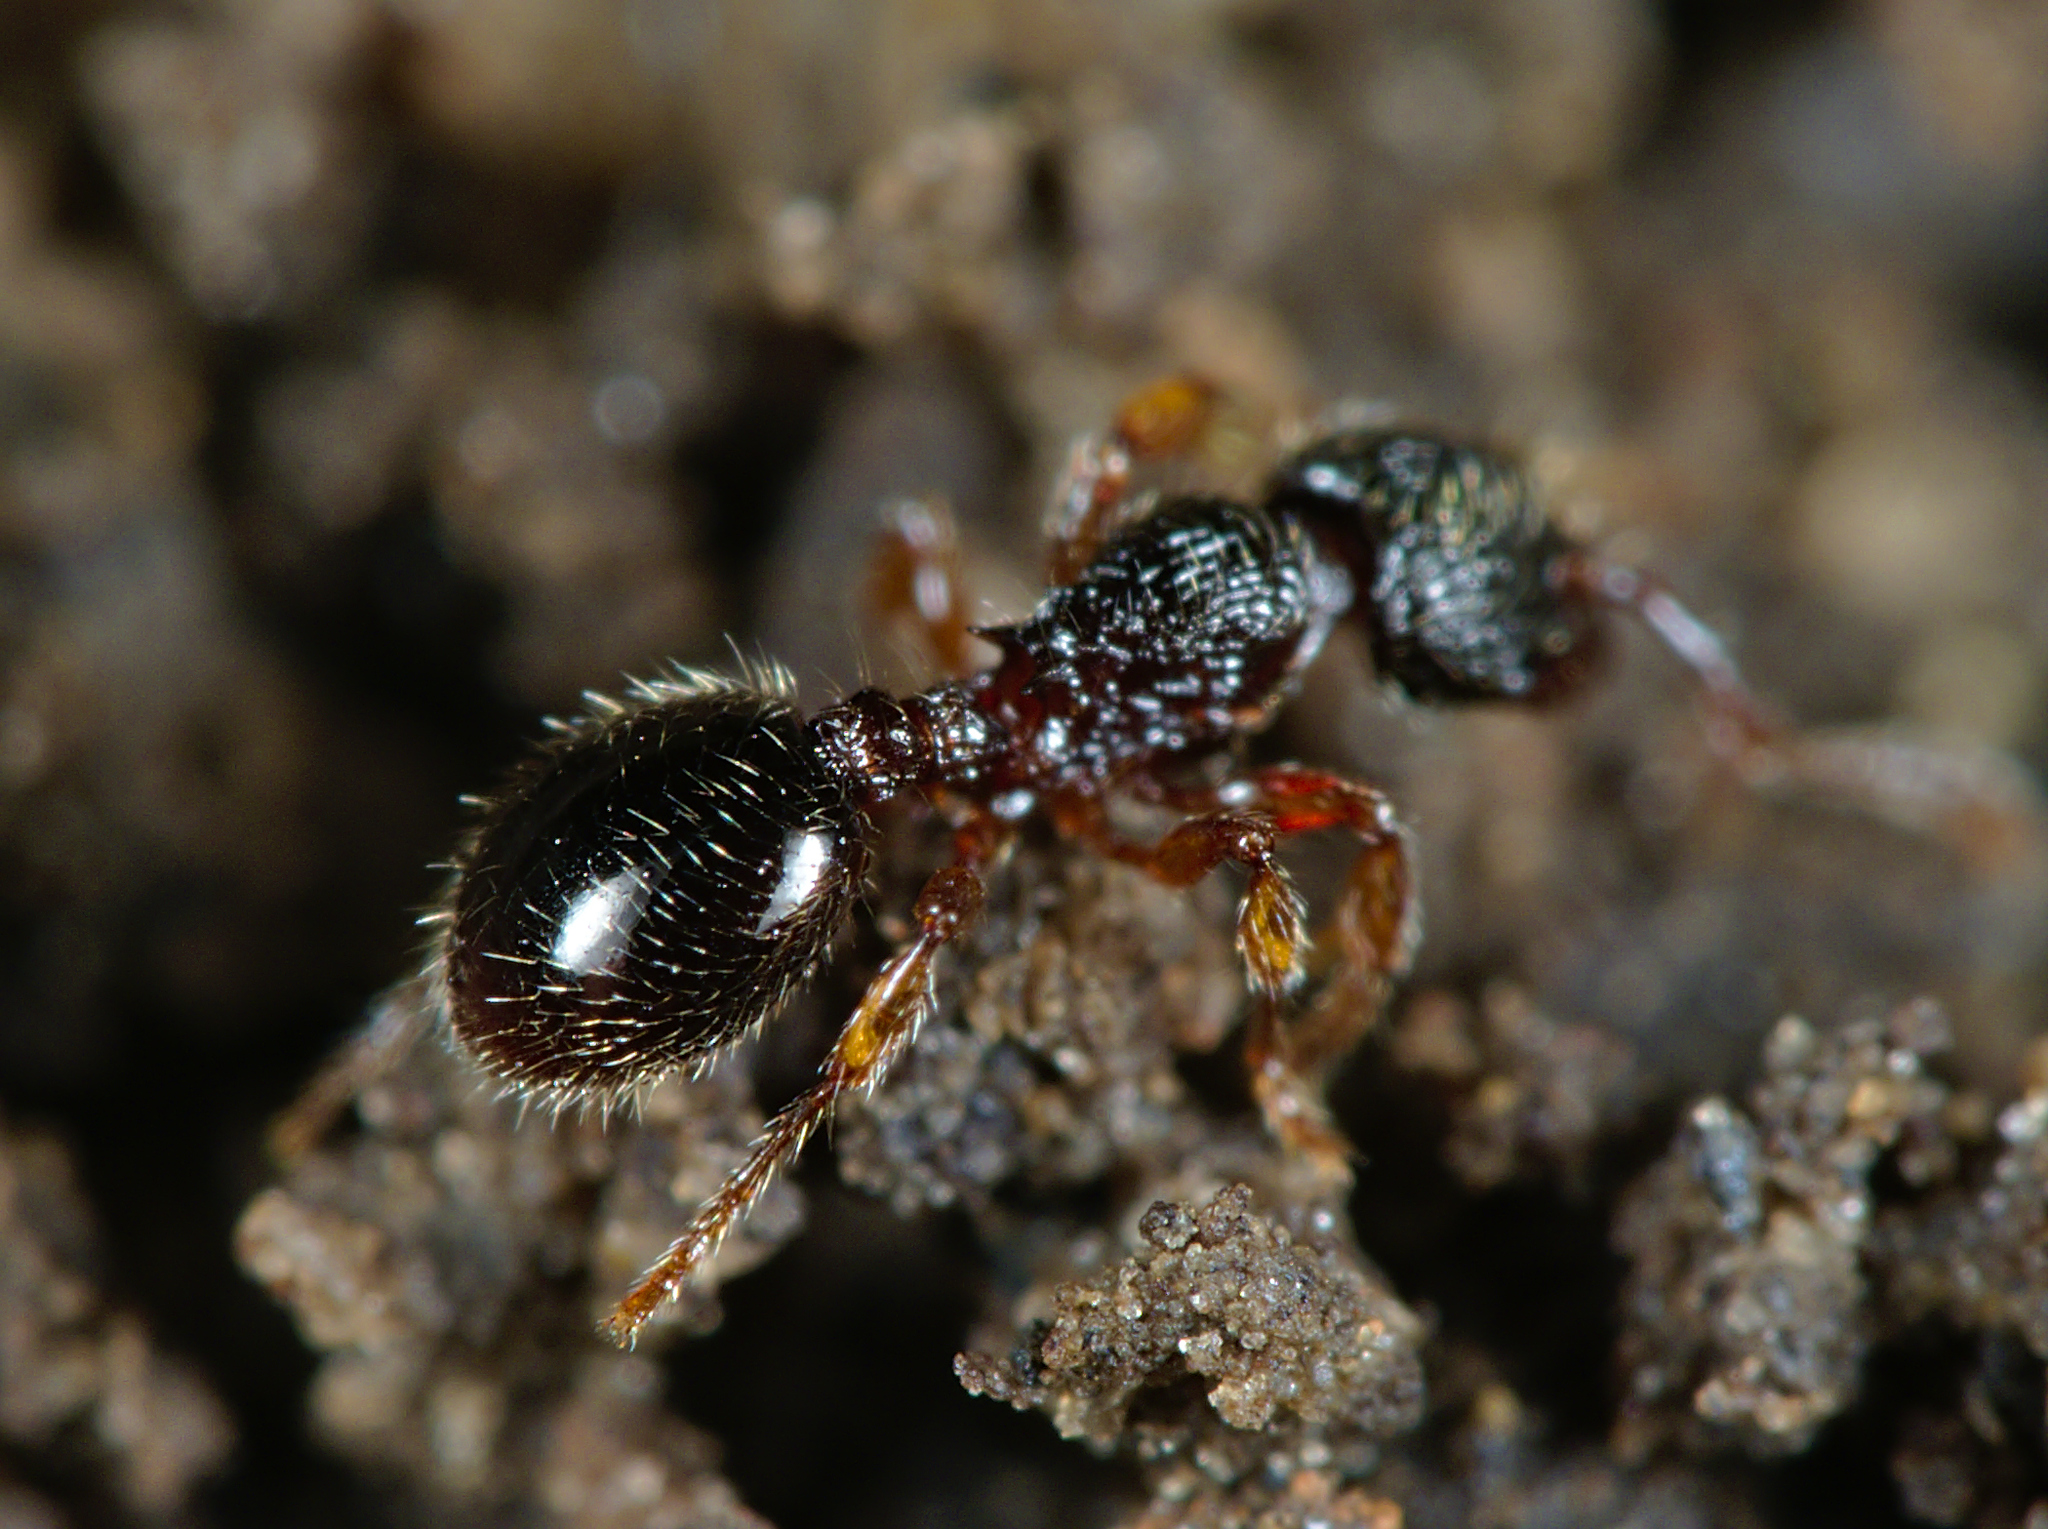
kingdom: Animalia
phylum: Arthropoda
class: Insecta
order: Hymenoptera
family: Formicidae
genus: Myrmecina
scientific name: Myrmecina graminicola
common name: Grass ant
